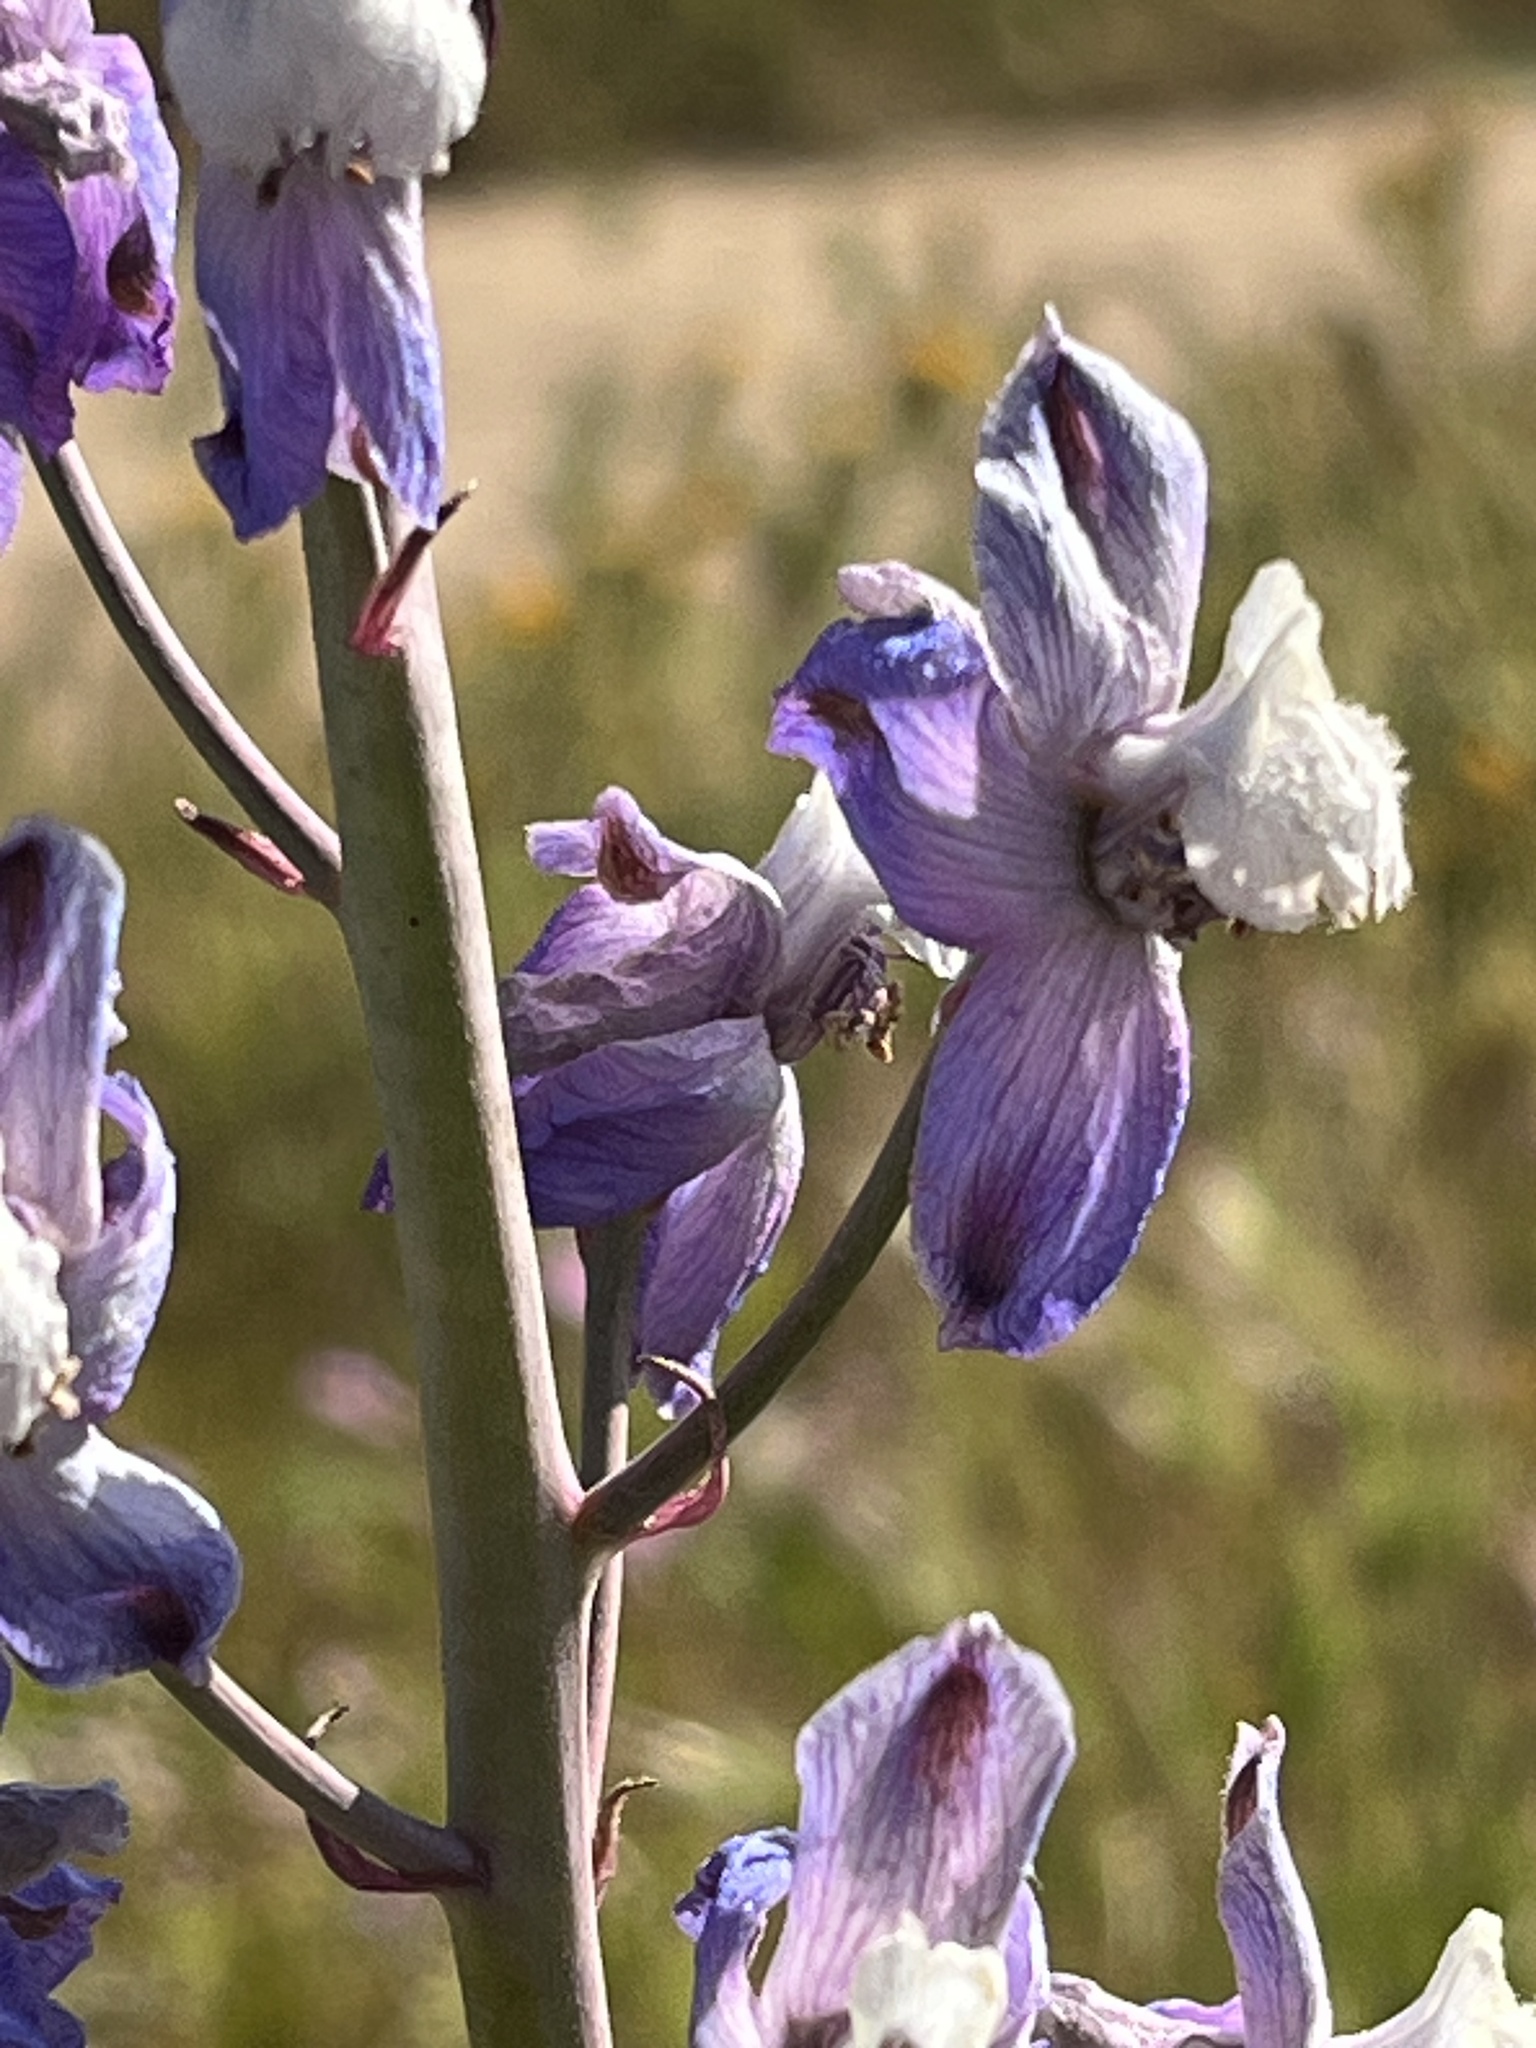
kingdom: Plantae
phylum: Tracheophyta
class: Magnoliopsida
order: Ranunculales
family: Ranunculaceae
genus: Delphinium
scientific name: Delphinium recurvatum
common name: Recurved larkspur
